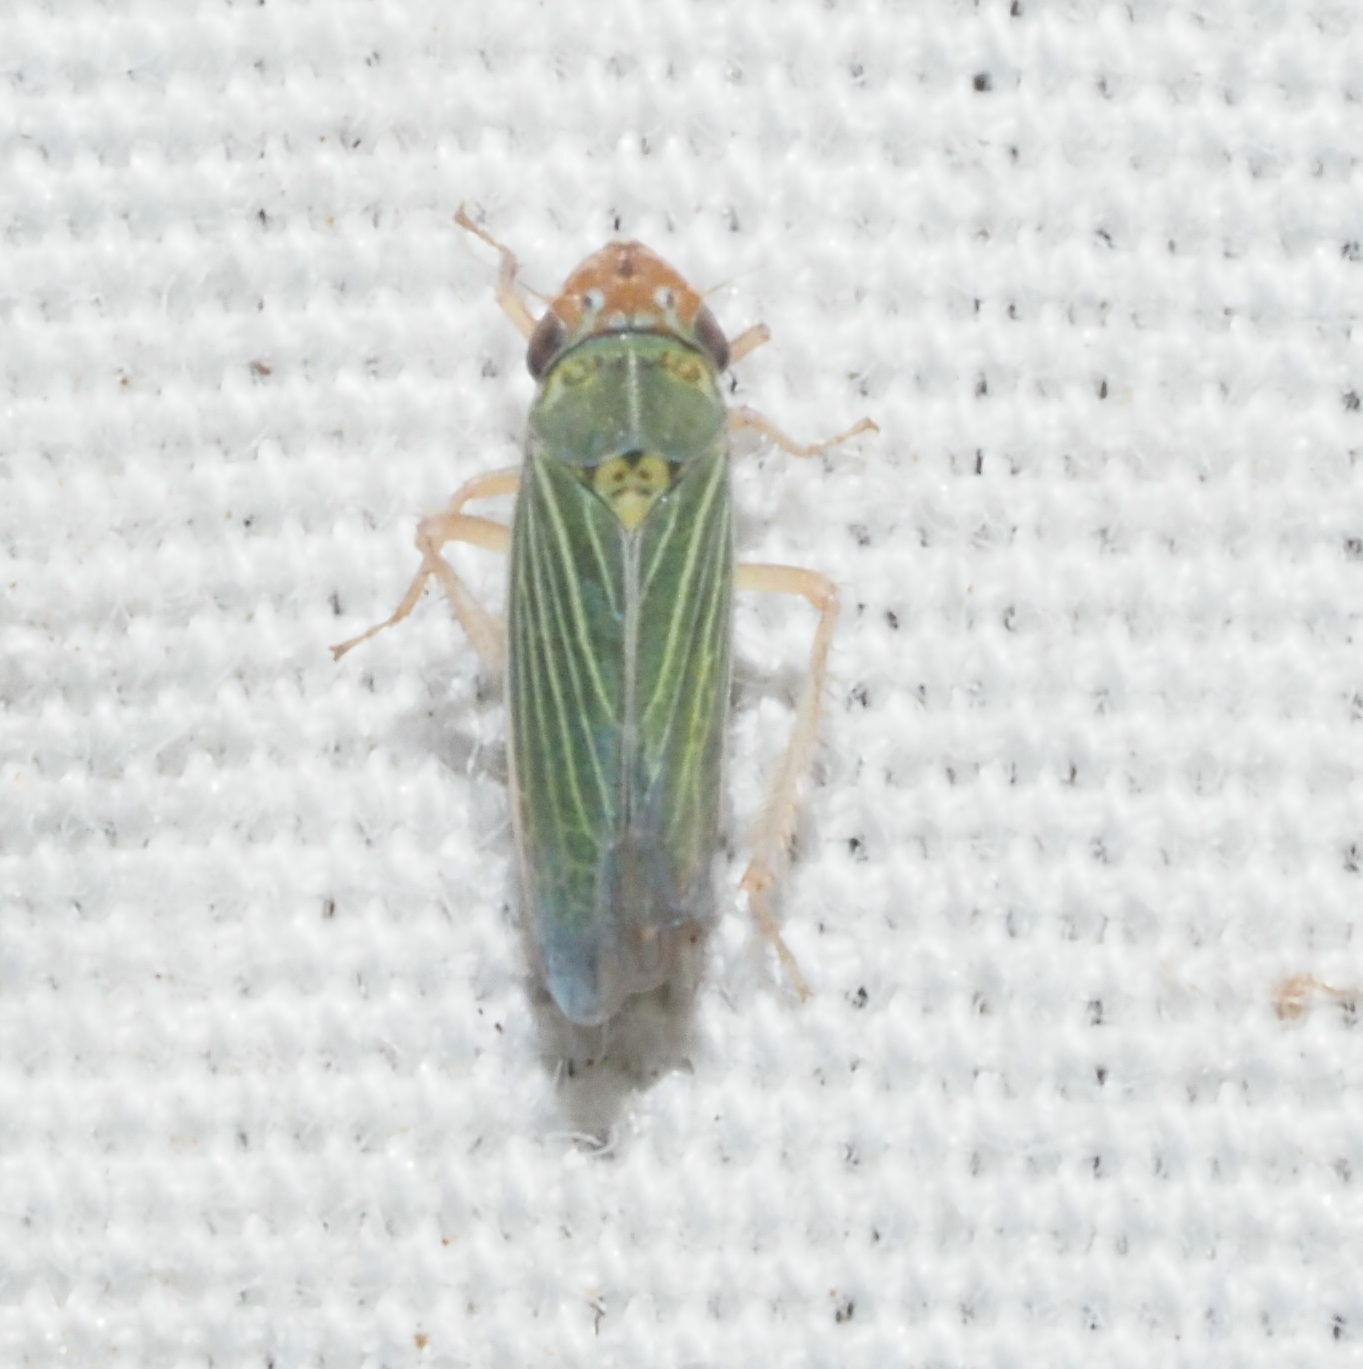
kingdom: Animalia
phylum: Arthropoda
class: Insecta
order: Hemiptera
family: Cicadellidae
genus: Xyphon
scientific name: Xyphon reticulatum
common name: Planthopper
